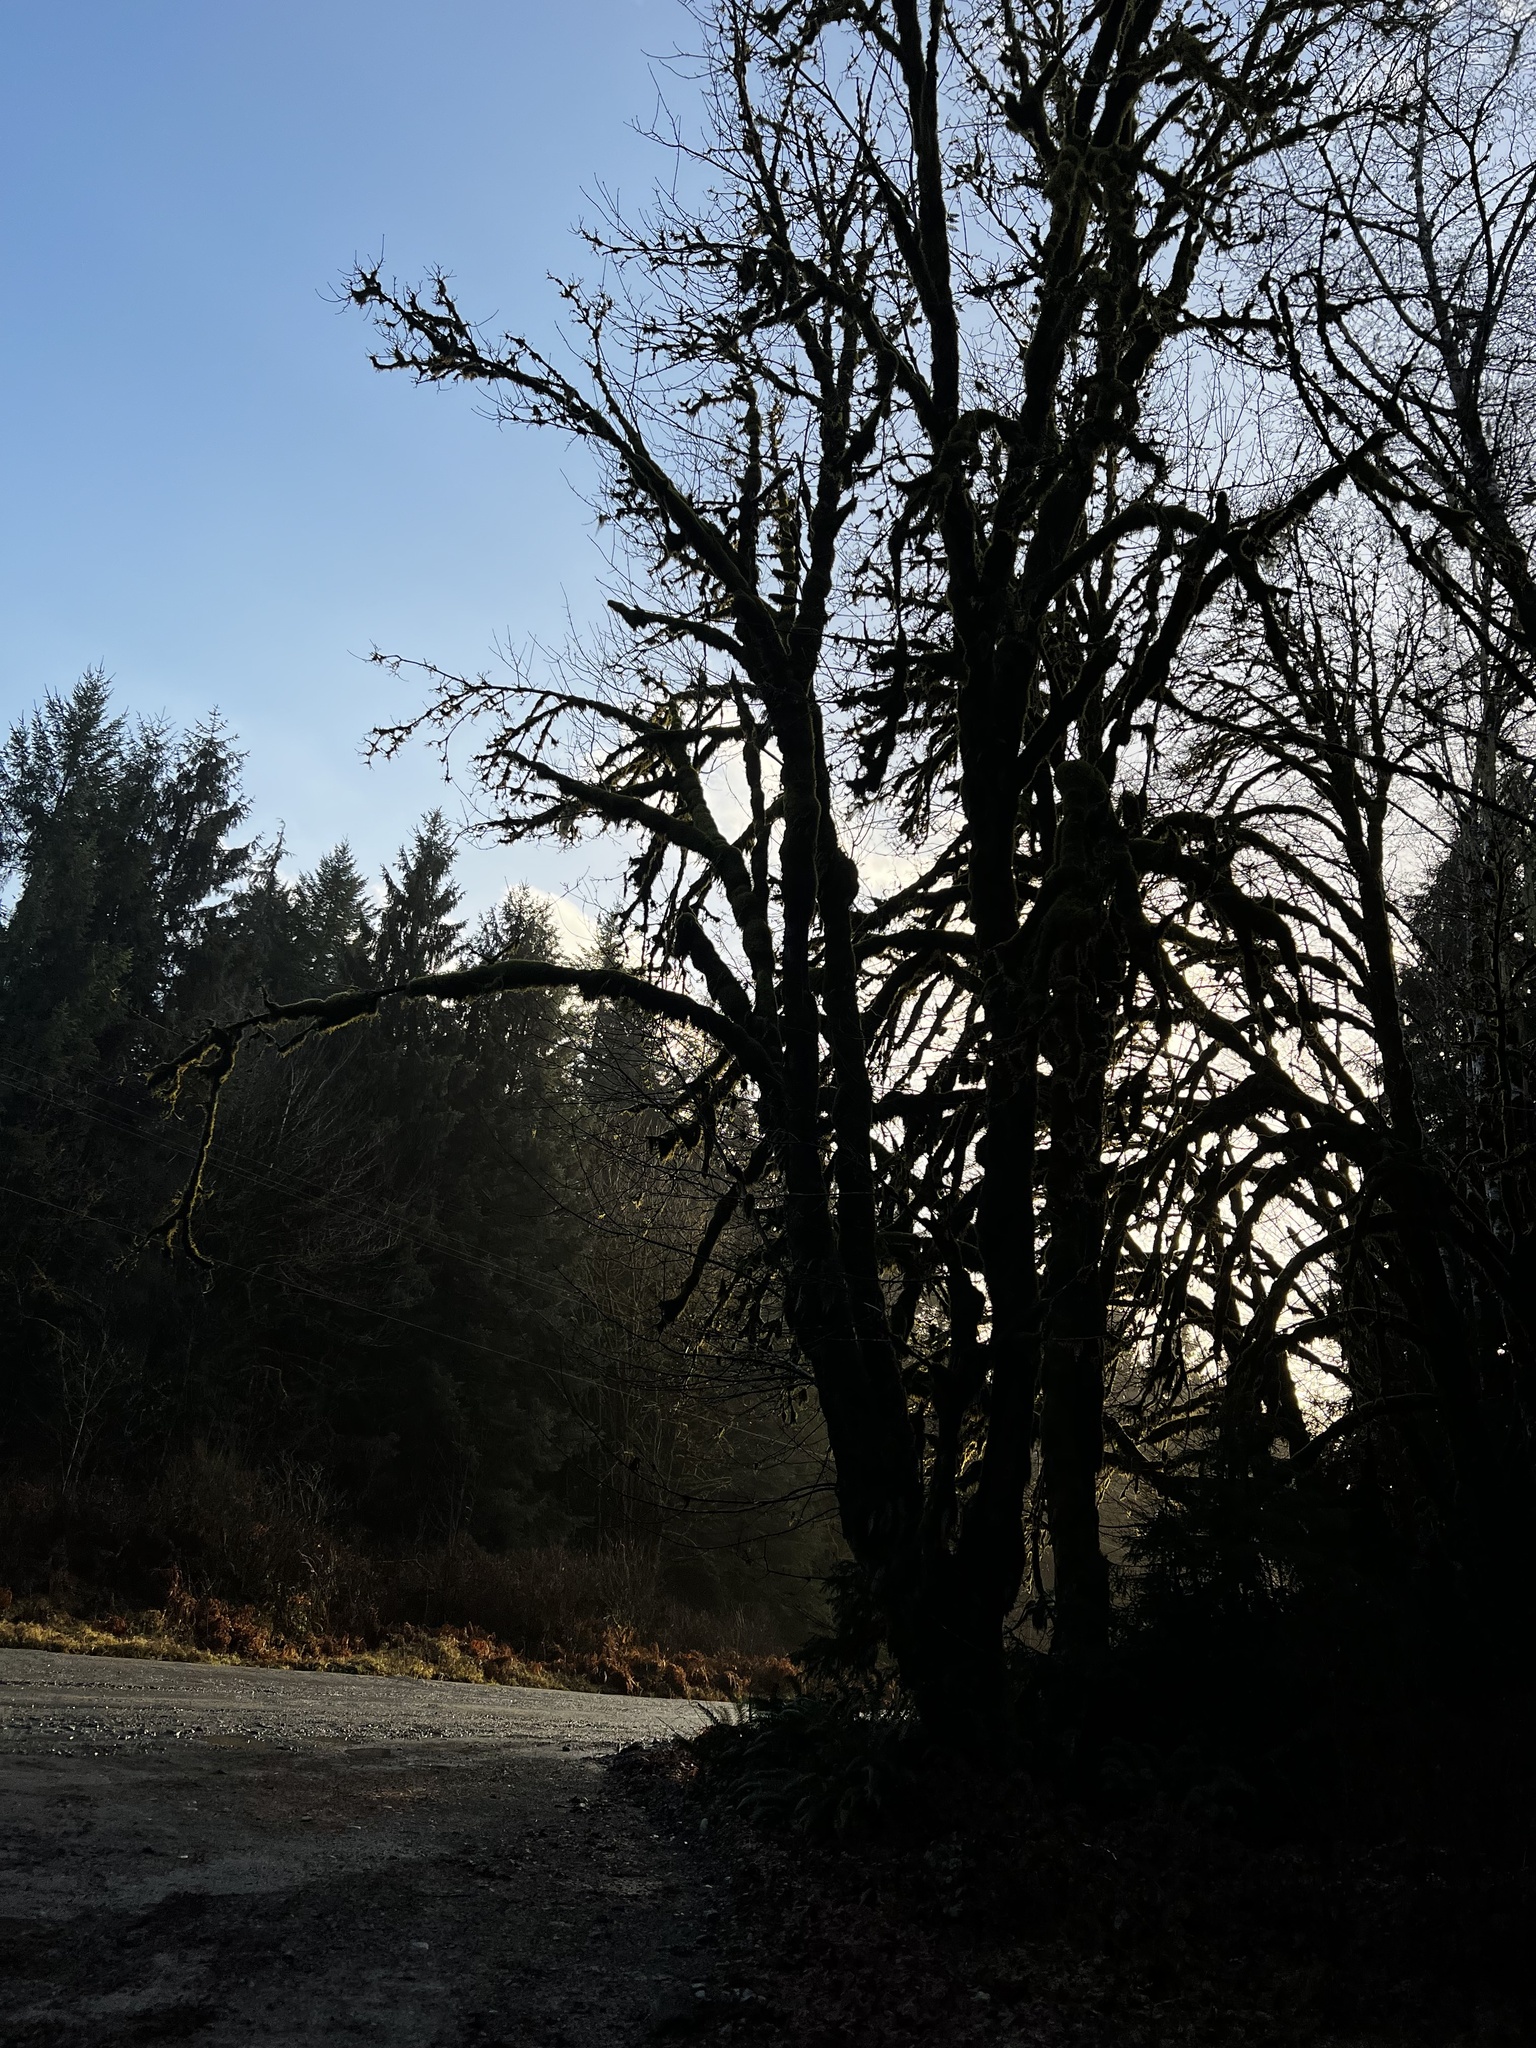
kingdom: Plantae
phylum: Tracheophyta
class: Magnoliopsida
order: Sapindales
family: Sapindaceae
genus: Acer
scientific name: Acer macrophyllum
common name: Oregon maple
